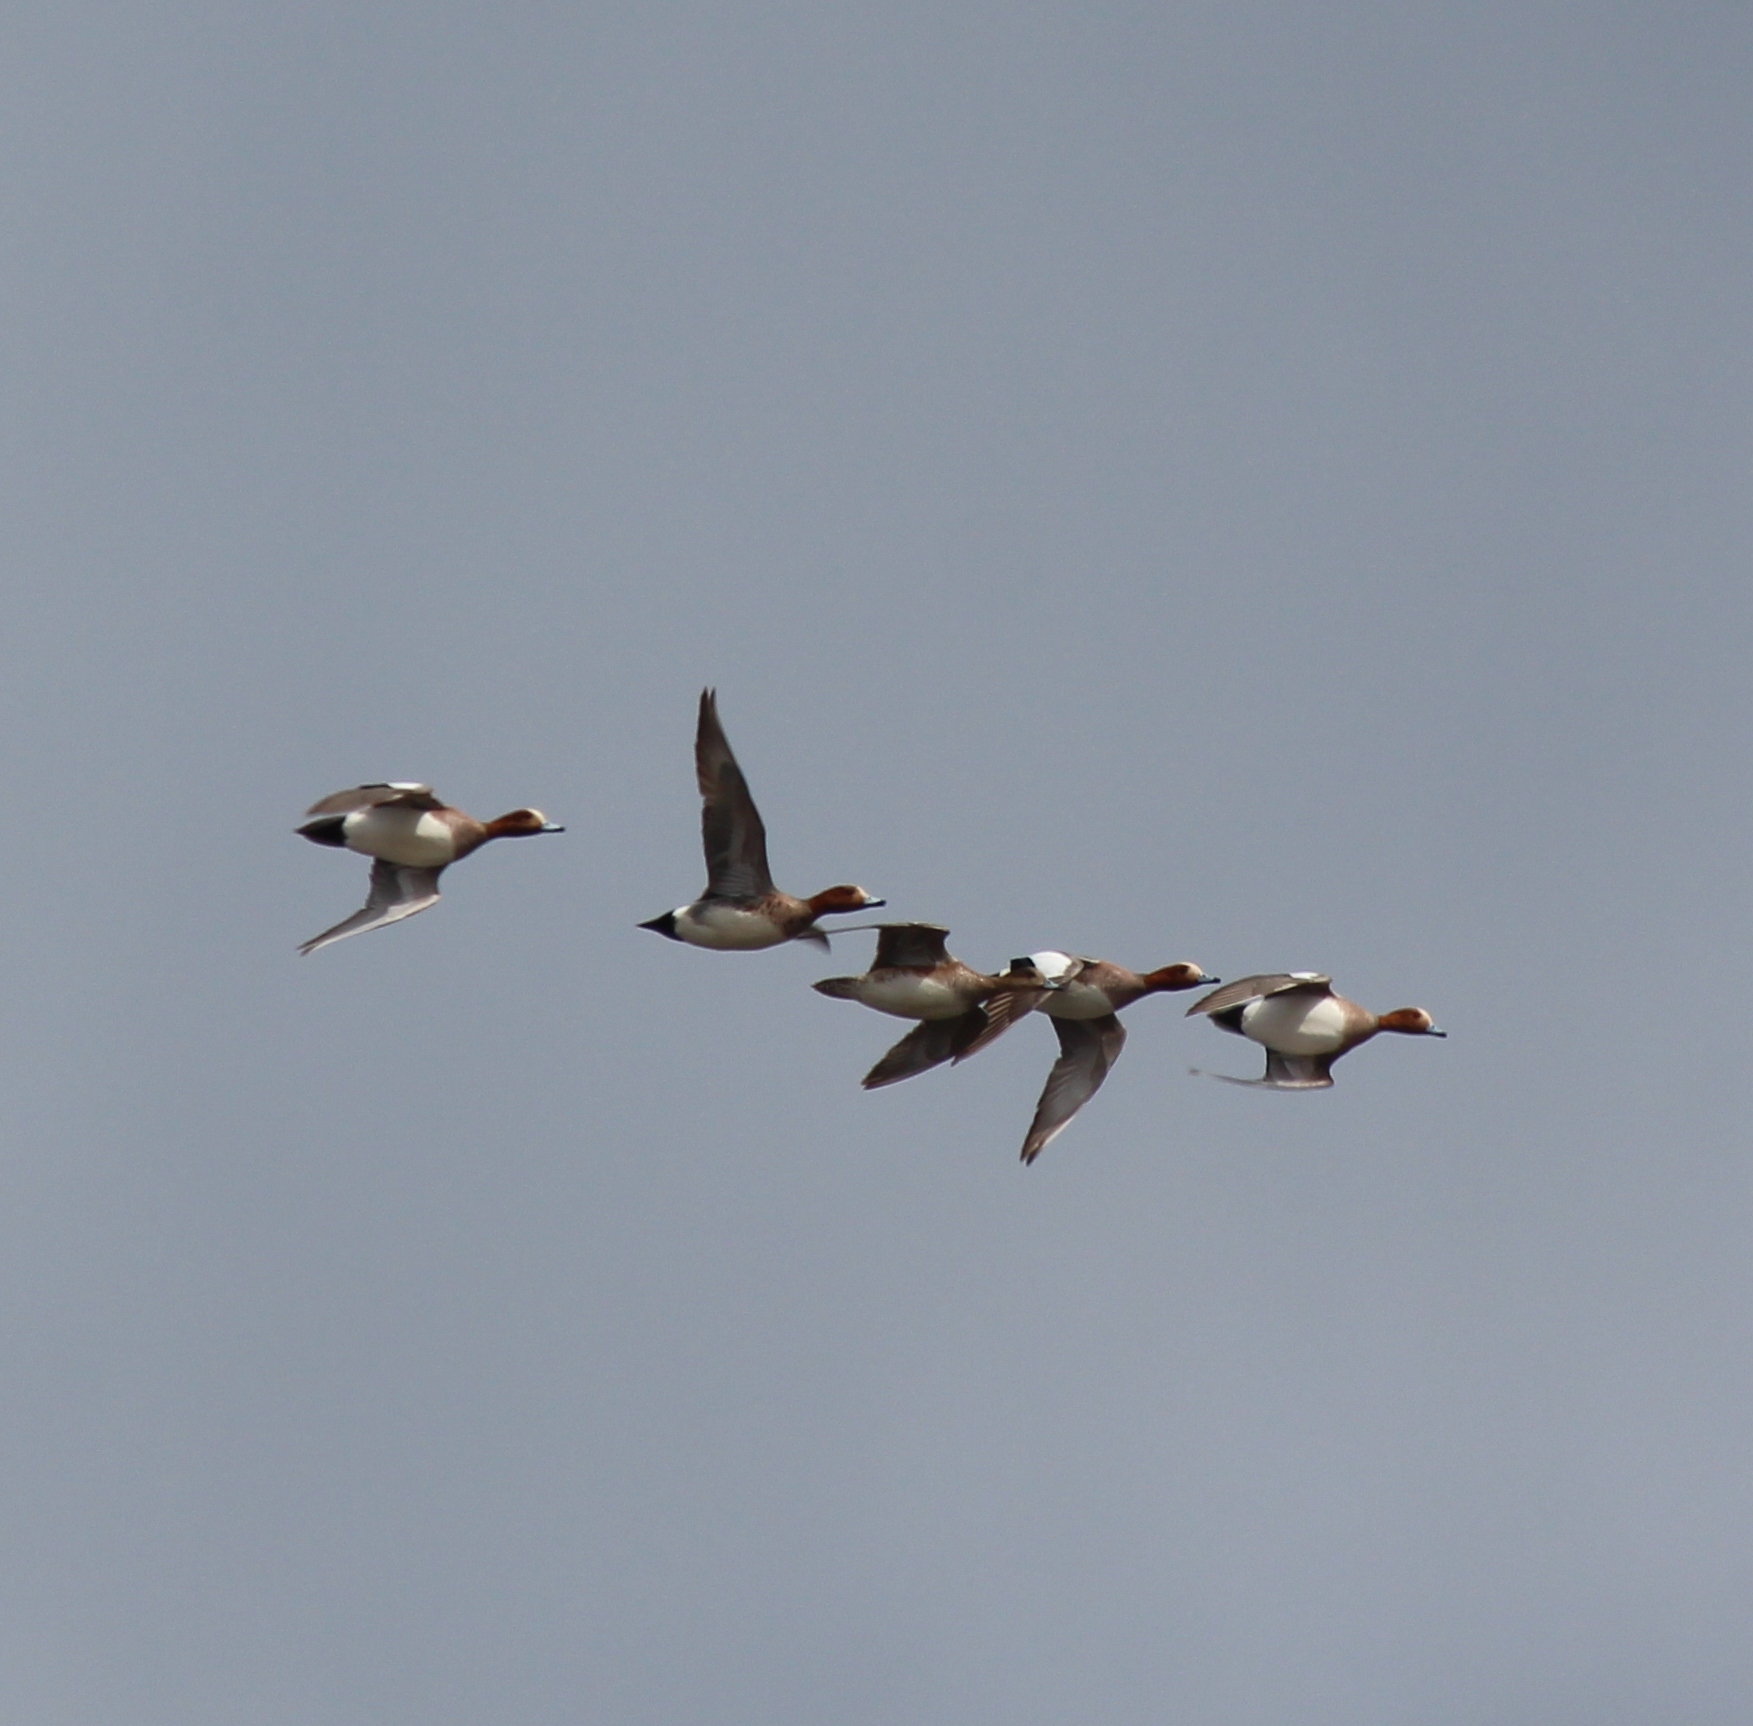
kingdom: Animalia
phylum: Chordata
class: Aves
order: Anseriformes
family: Anatidae
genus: Mareca
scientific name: Mareca penelope
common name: Eurasian wigeon
